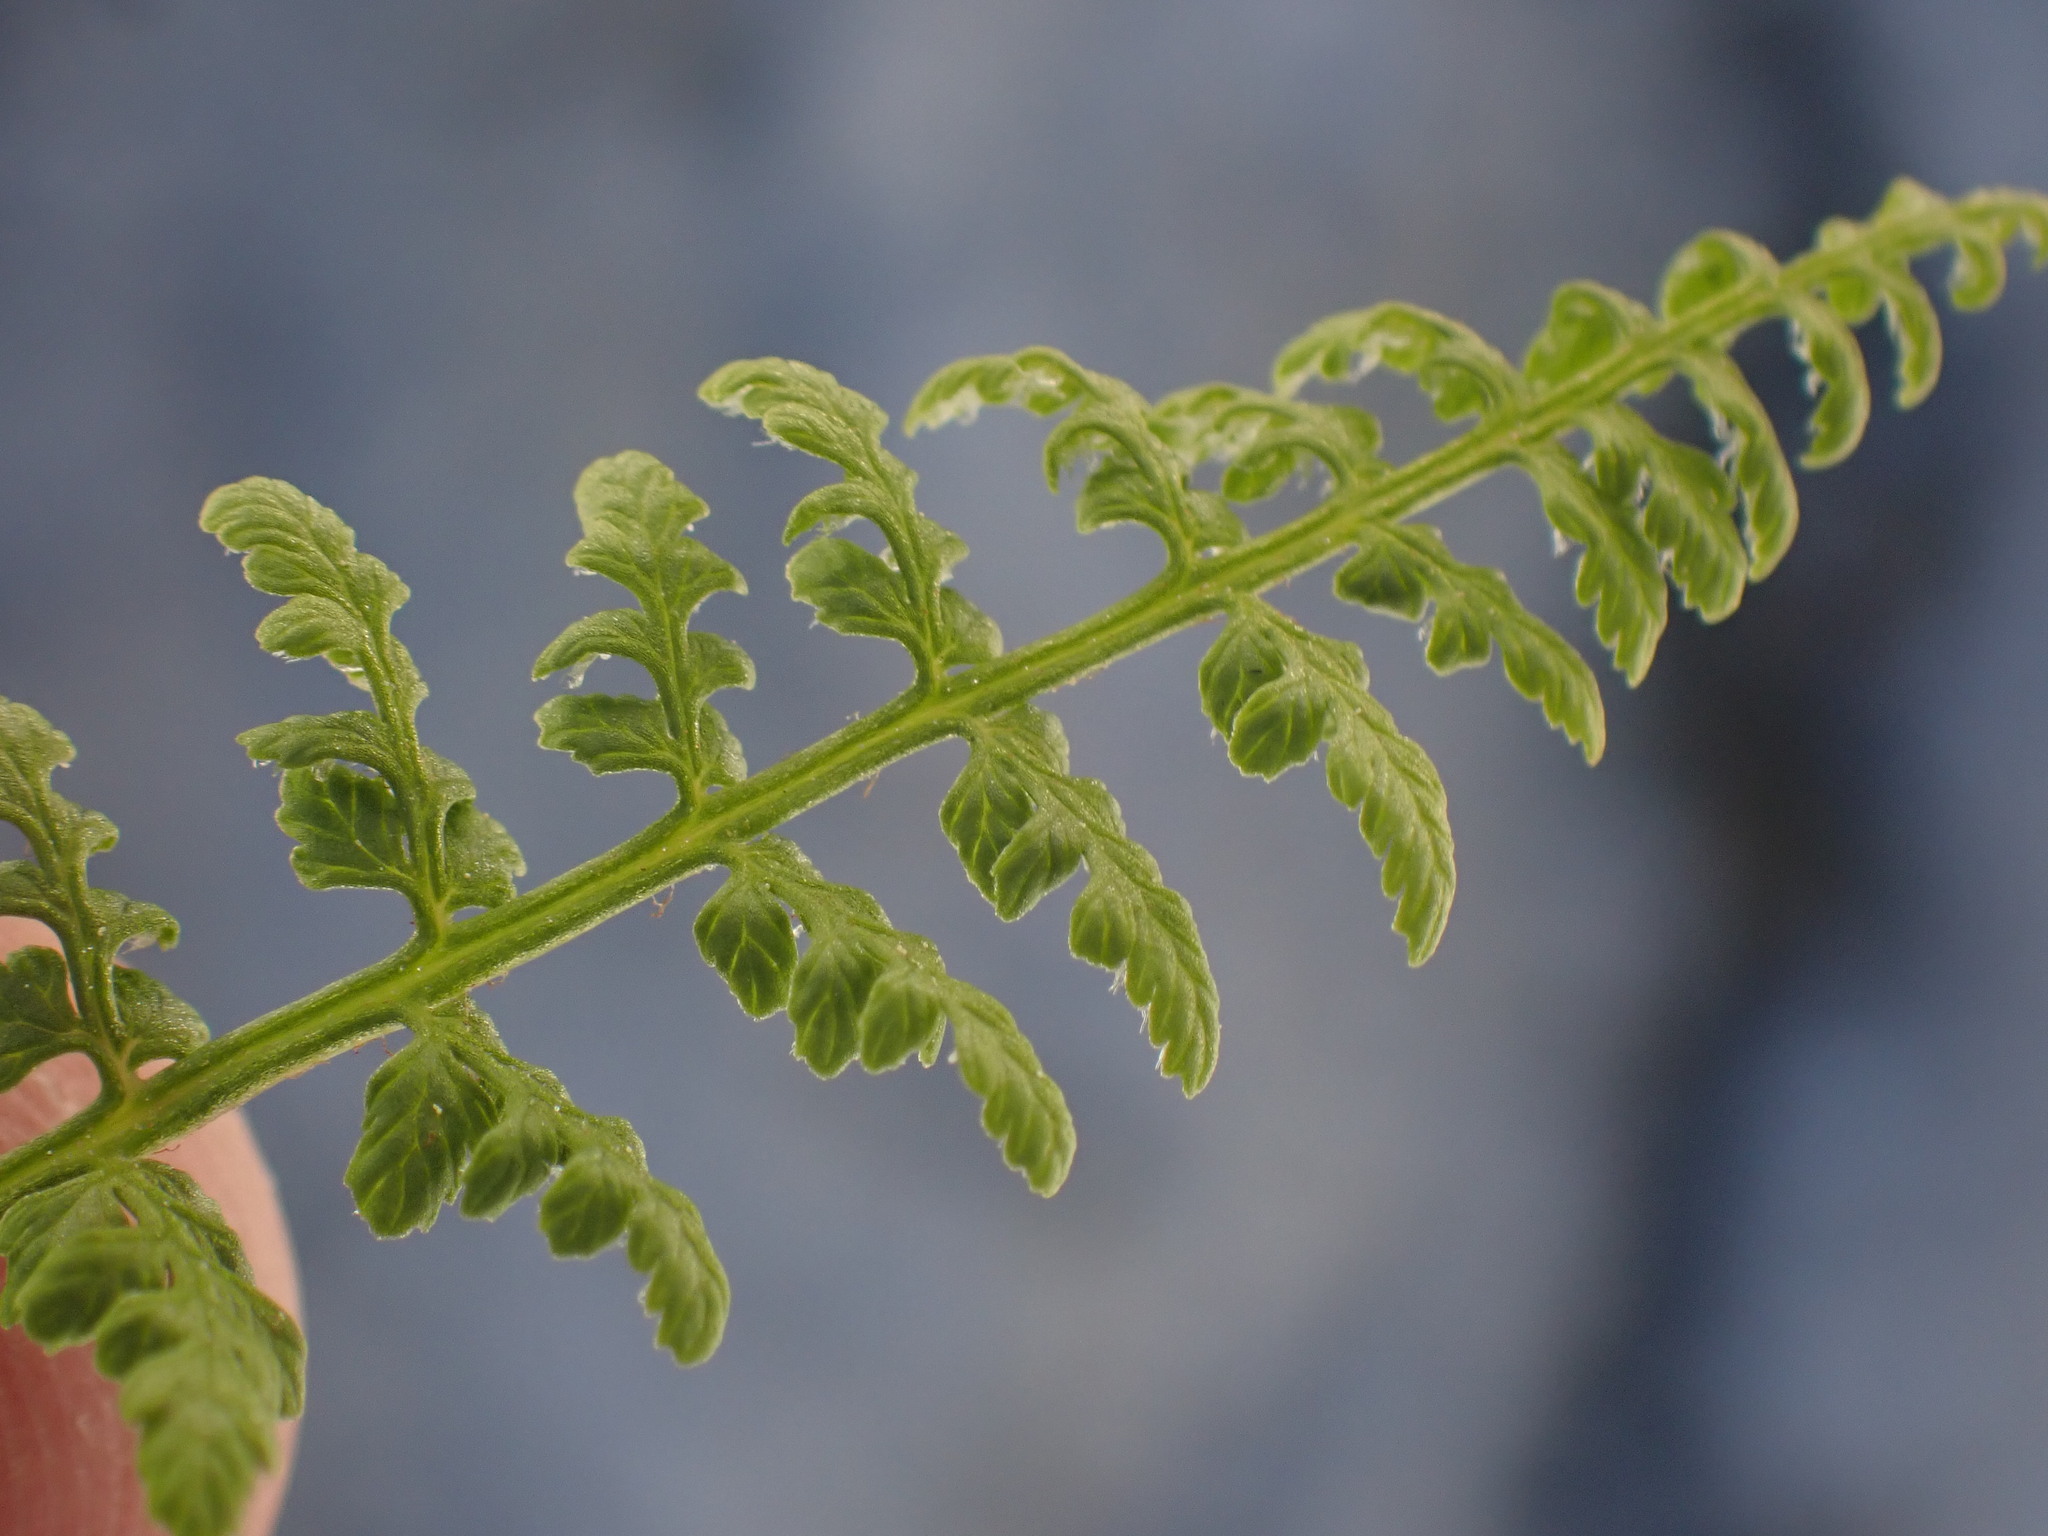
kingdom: Plantae
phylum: Tracheophyta
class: Polypodiopsida
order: Polypodiales
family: Cystopteridaceae
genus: Cystopteris
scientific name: Cystopteris fragilis
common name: Brittle bladder fern
